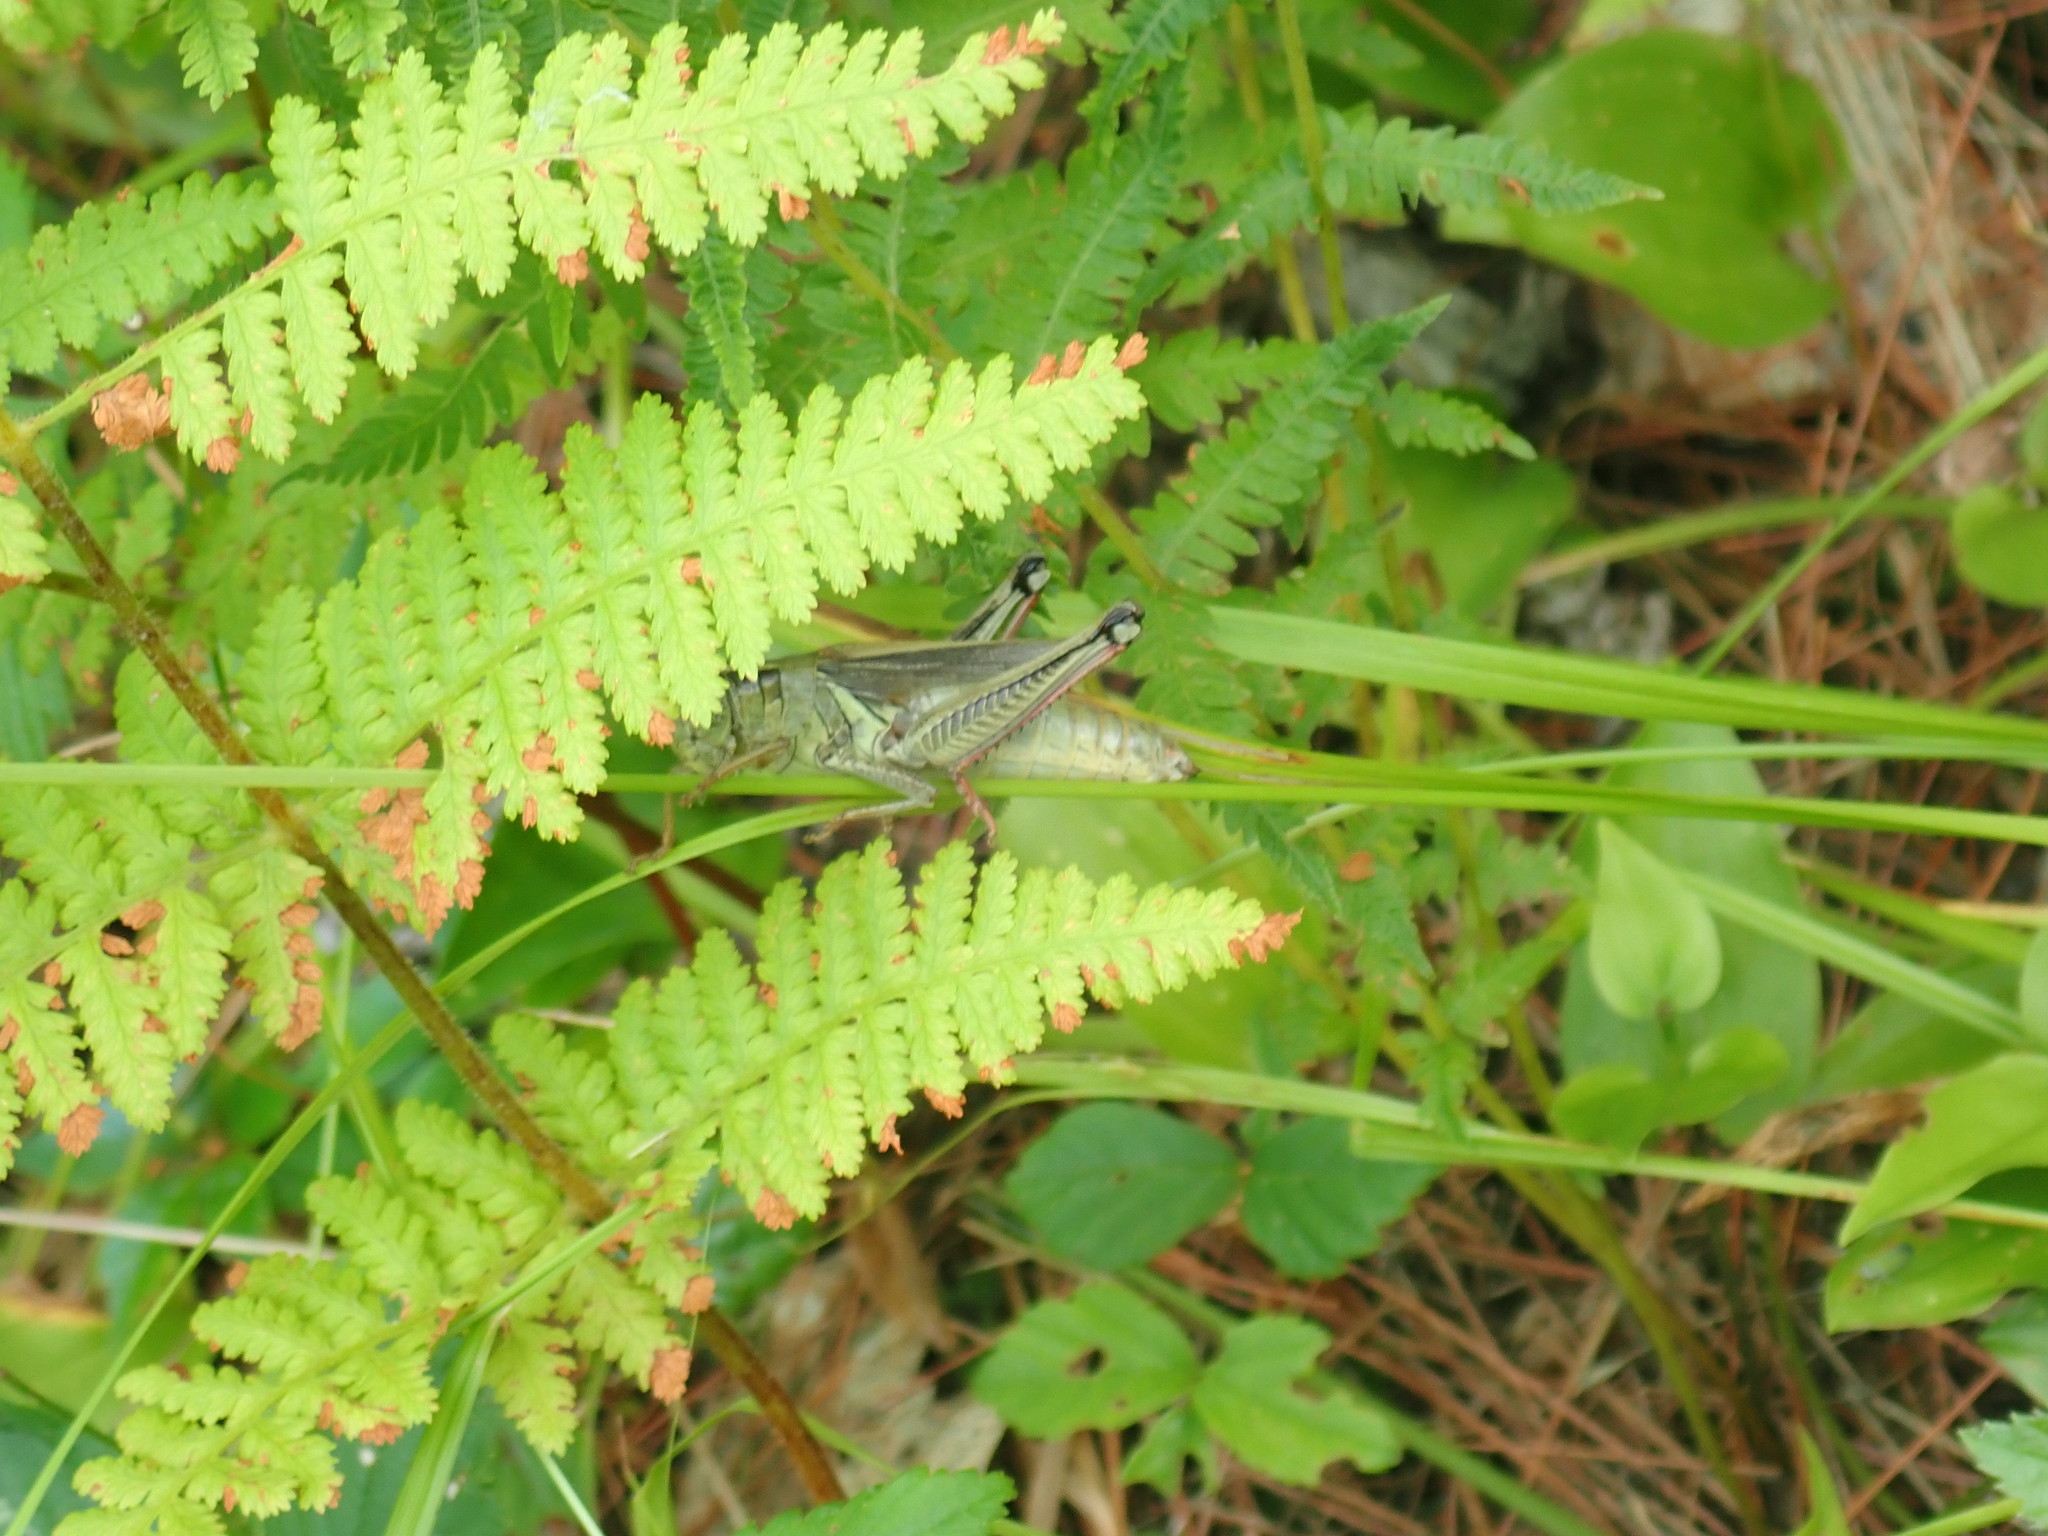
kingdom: Animalia
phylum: Arthropoda
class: Insecta
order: Orthoptera
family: Acrididae
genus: Melanoplus
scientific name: Melanoplus bivittatus
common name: Two-striped grasshopper
